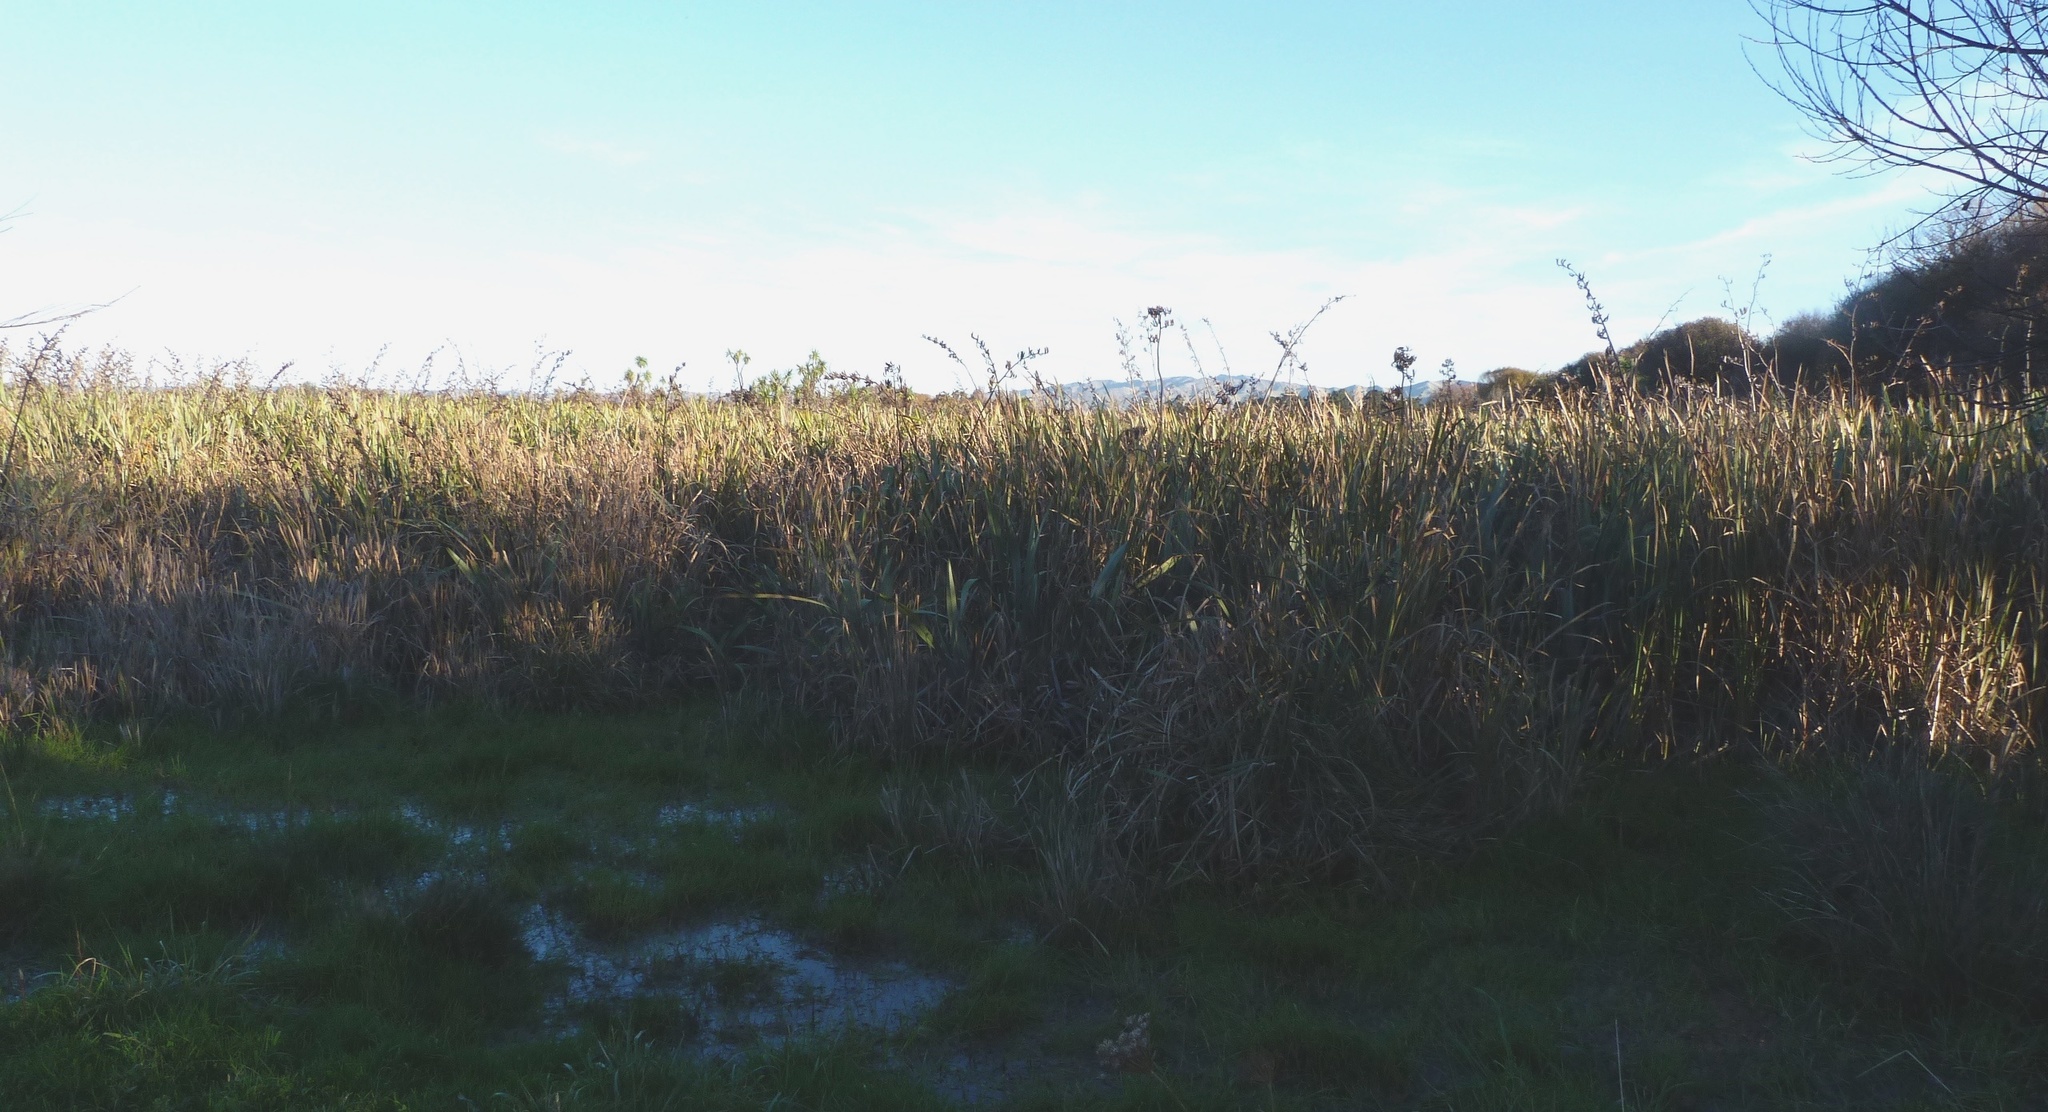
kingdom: Plantae
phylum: Tracheophyta
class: Liliopsida
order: Poales
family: Typhaceae
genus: Typha
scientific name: Typha orientalis
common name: Bullrush
